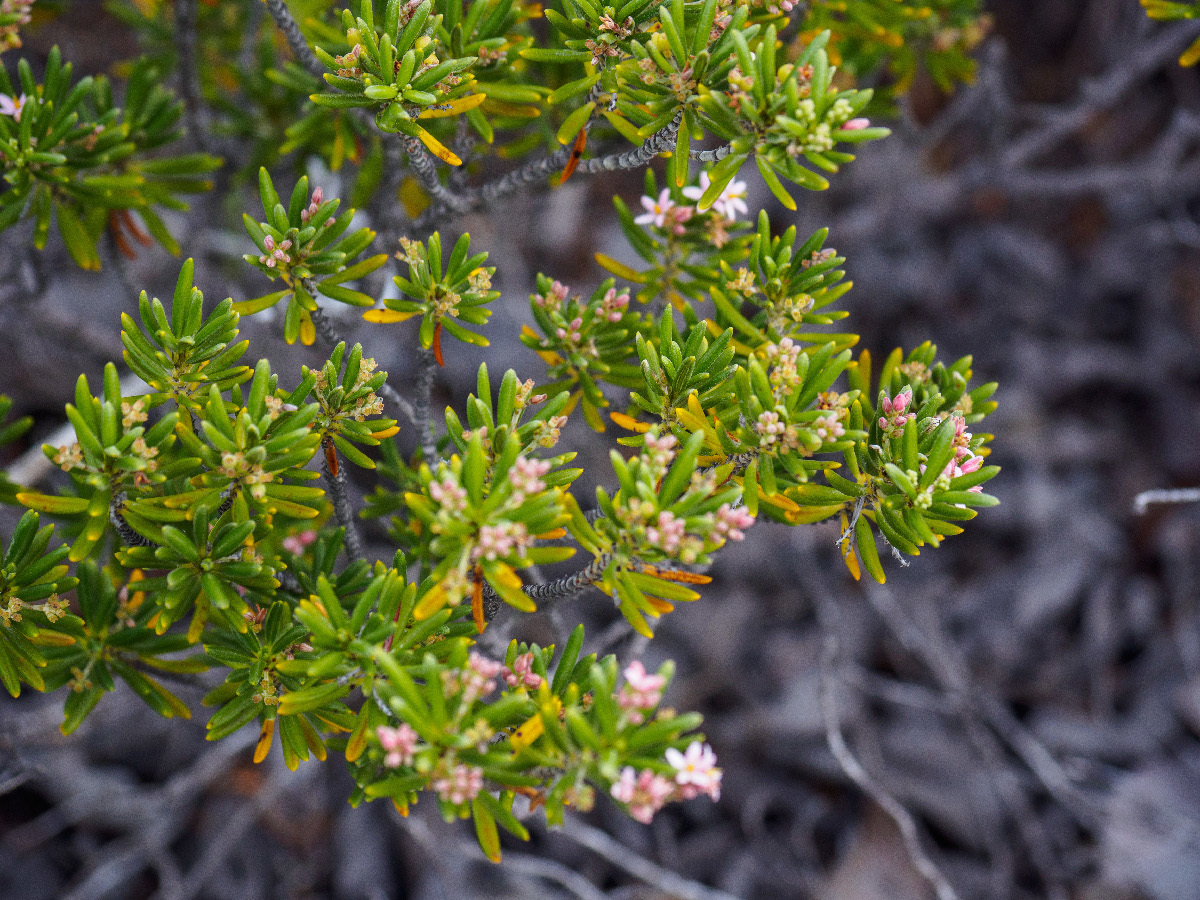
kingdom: Plantae
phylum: Tracheophyta
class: Magnoliopsida
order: Gentianales
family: Rubiaceae
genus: Strumpfia
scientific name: Strumpfia maritima
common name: Pride-of-big pine
